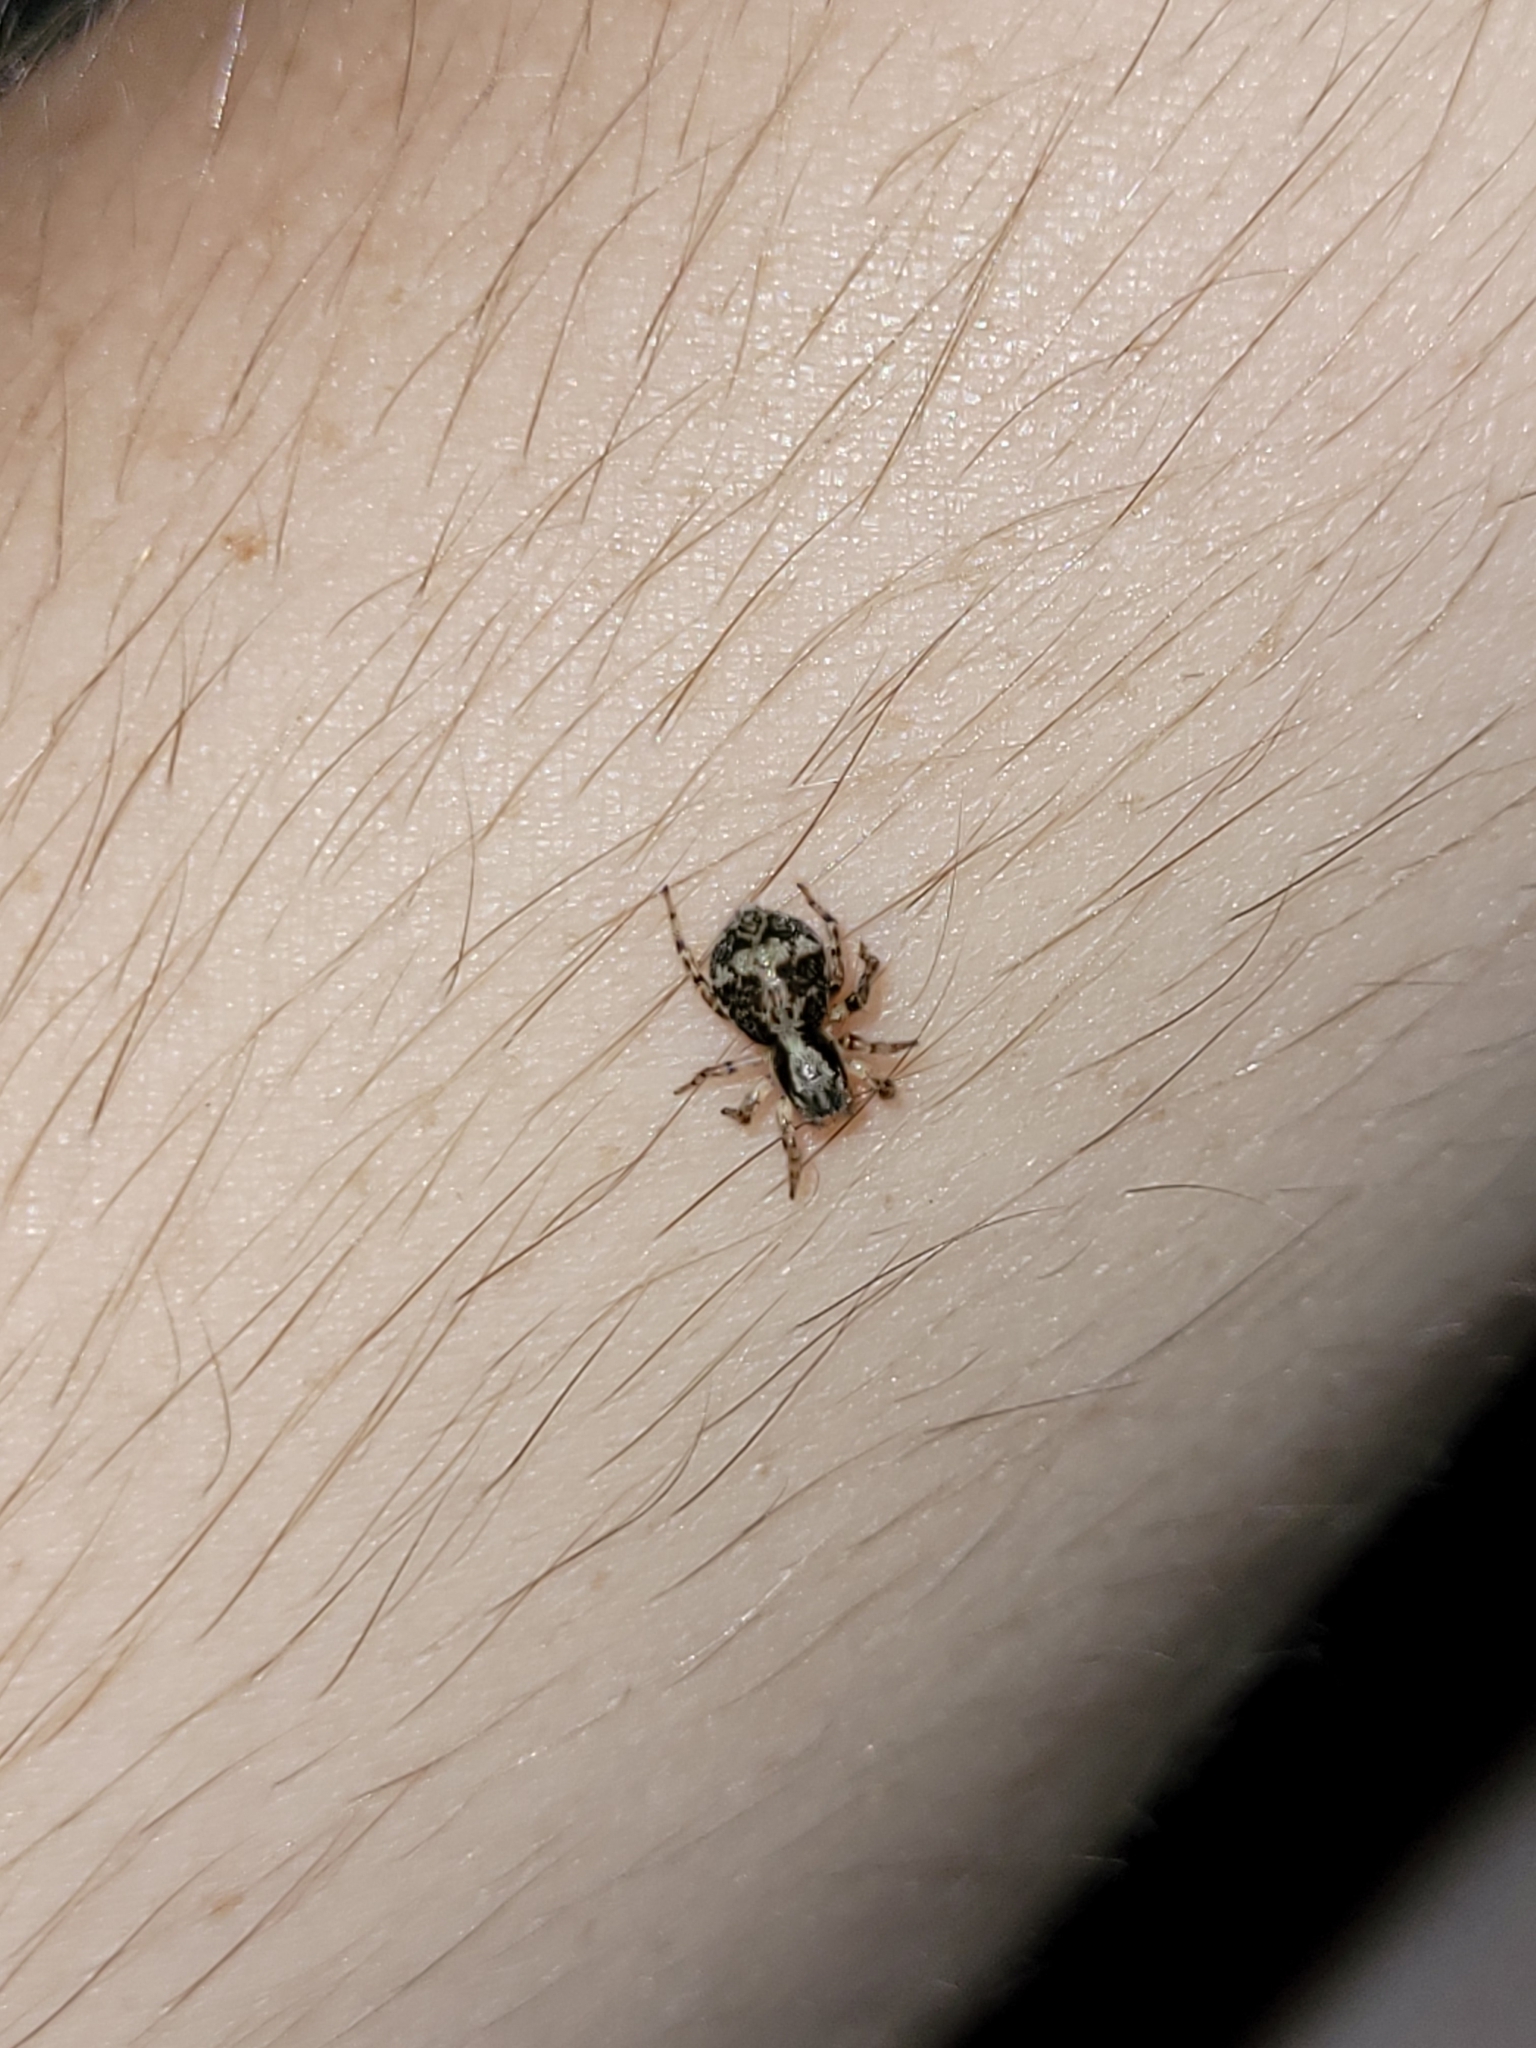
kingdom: Animalia
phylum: Arthropoda
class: Arachnida
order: Araneae
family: Salticidae
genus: Naphrys
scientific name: Naphrys pulex
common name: Flea jumping spider
